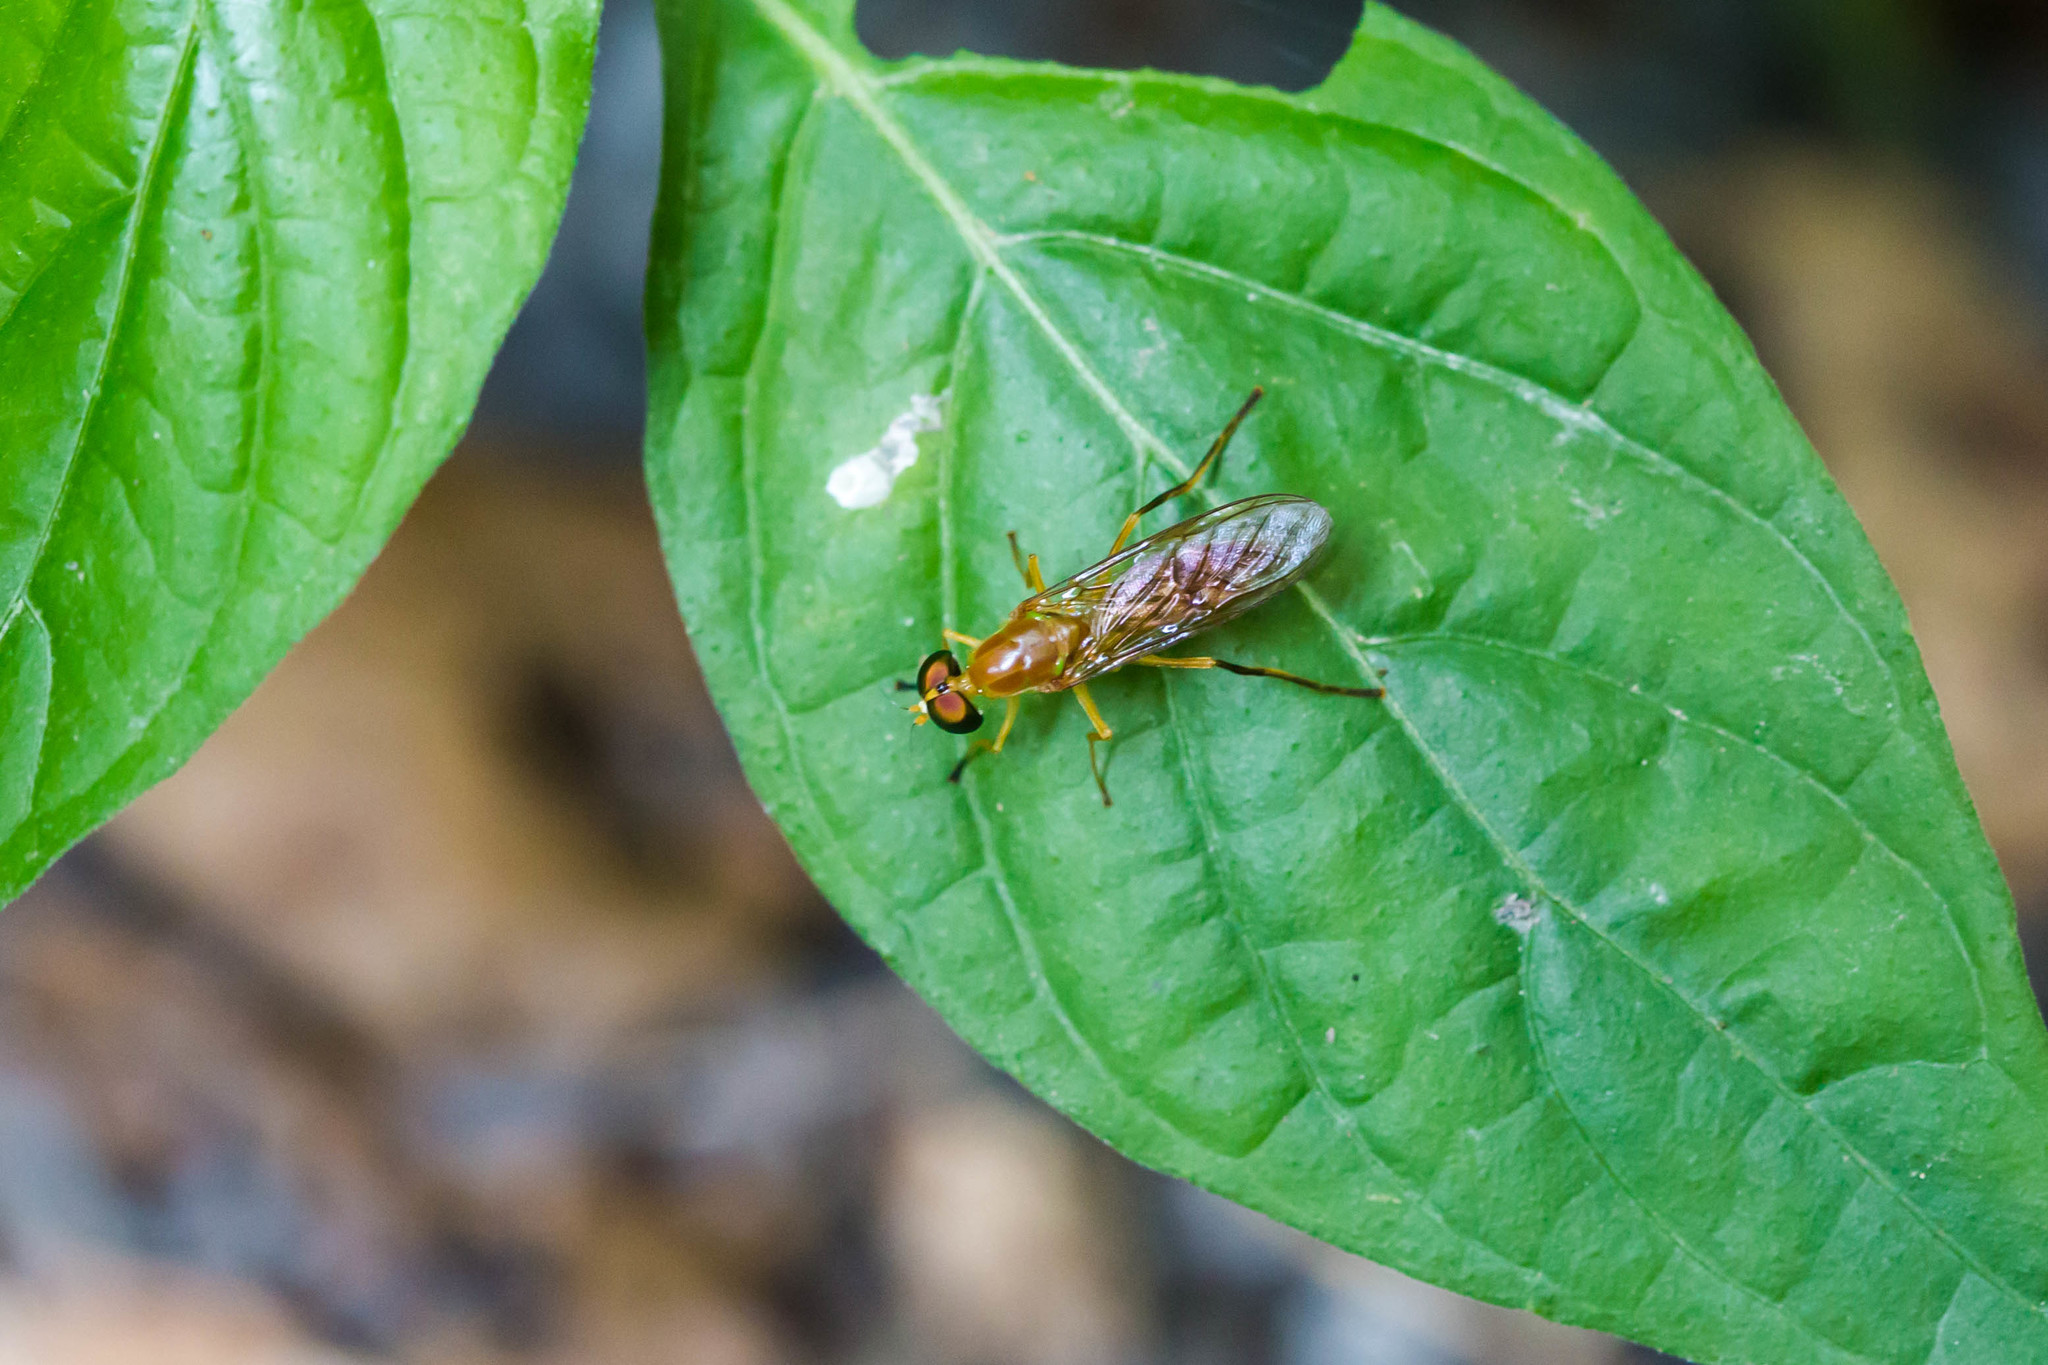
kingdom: Animalia
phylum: Arthropoda
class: Insecta
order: Diptera
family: Stratiomyidae
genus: Ptecticus
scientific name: Ptecticus trivittatus
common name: Compost fly
